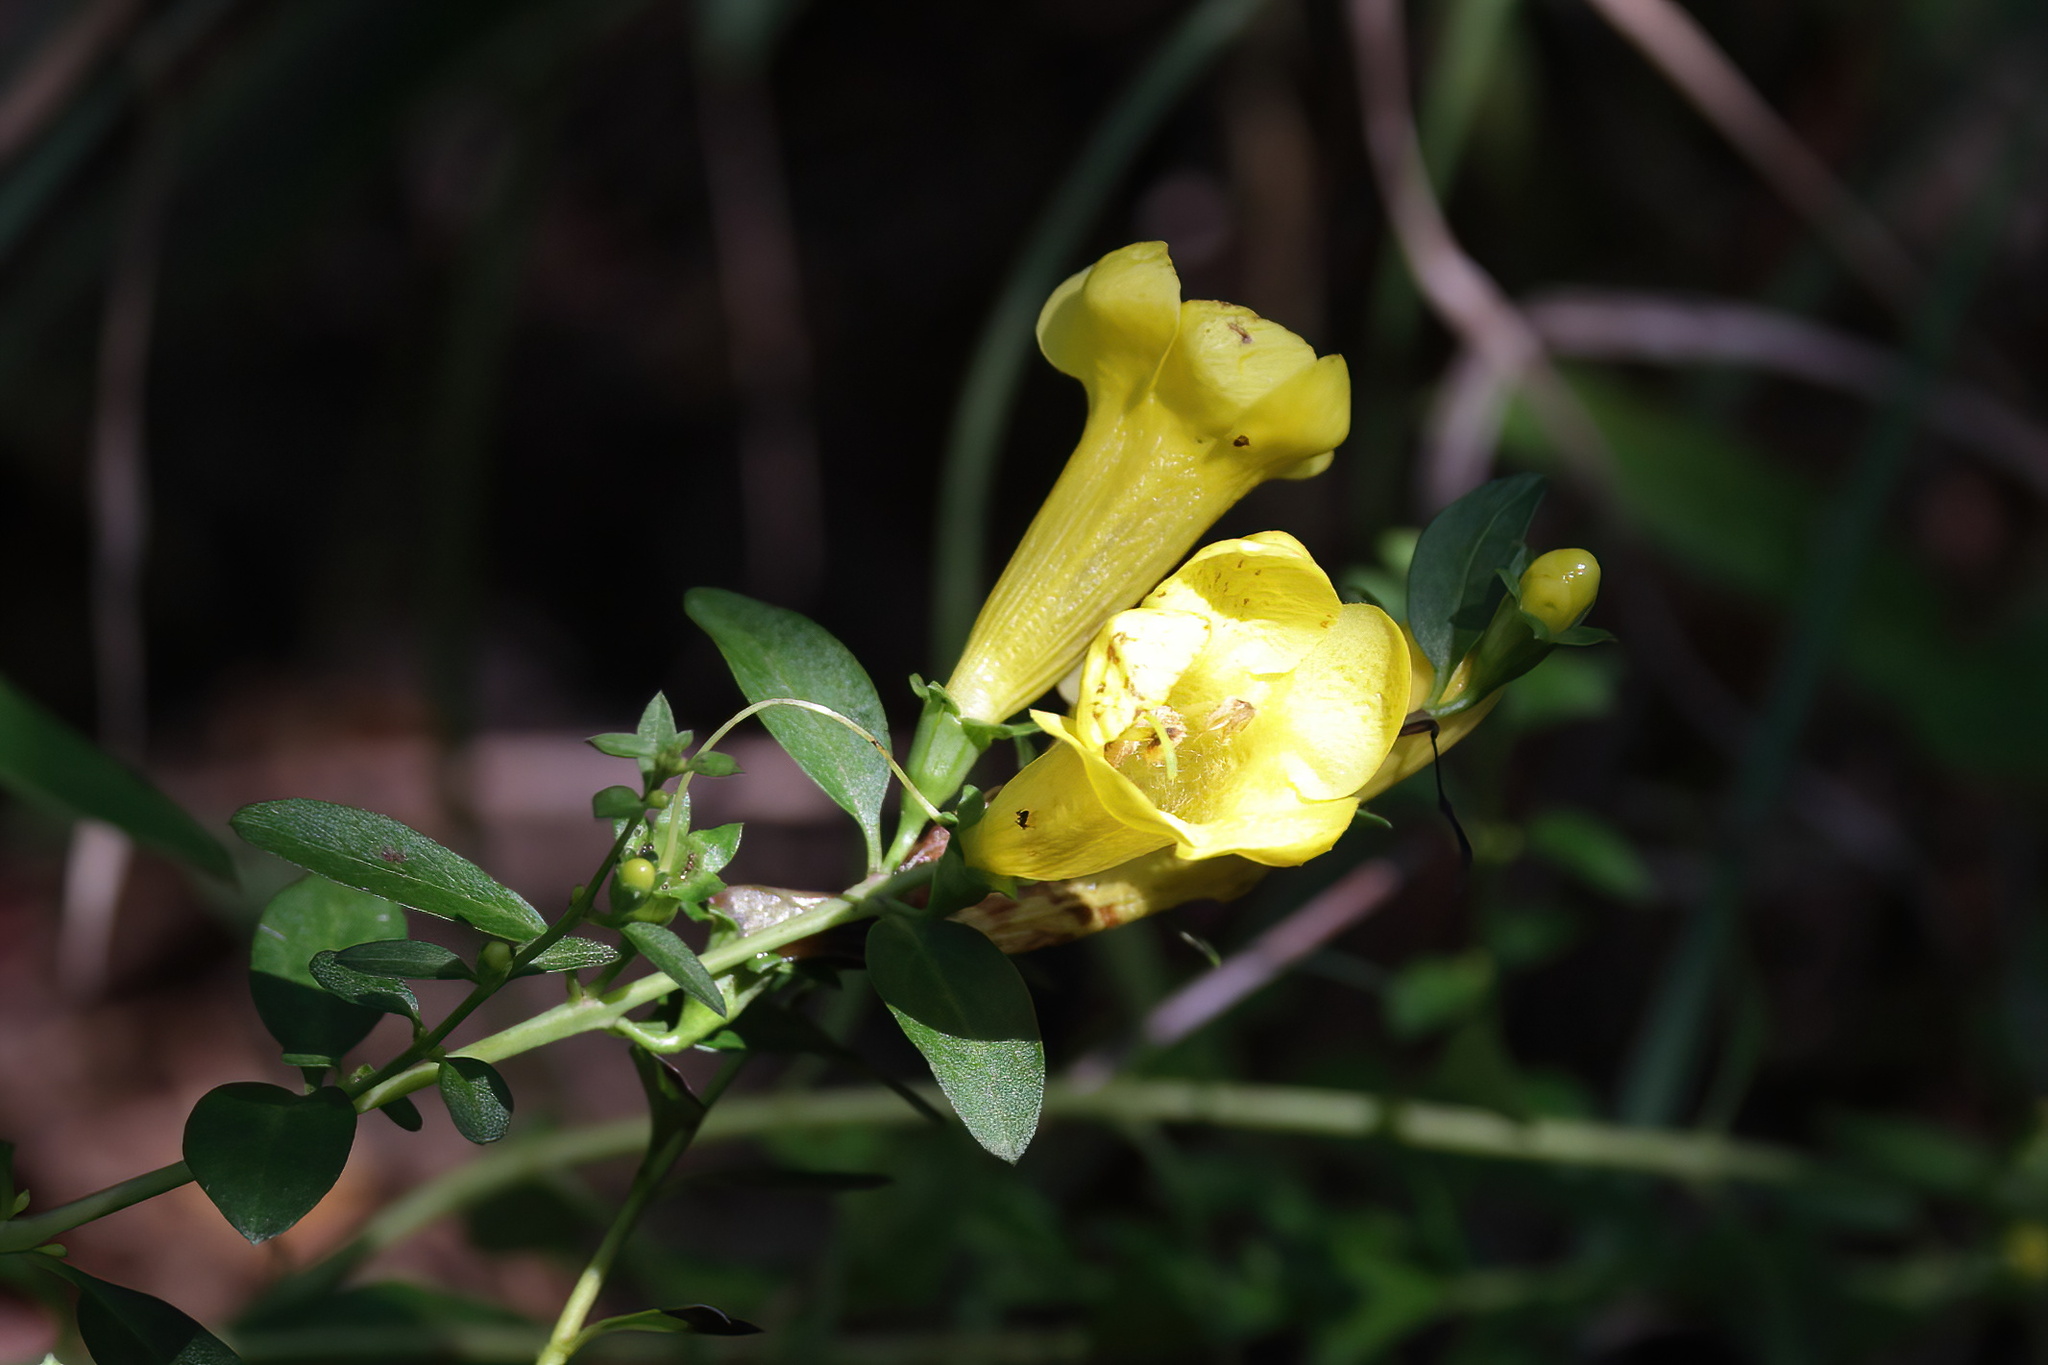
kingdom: Plantae
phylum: Tracheophyta
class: Magnoliopsida
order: Lamiales
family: Orobanchaceae
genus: Aureolaria
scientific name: Aureolaria flava
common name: Smooth false foxglove
